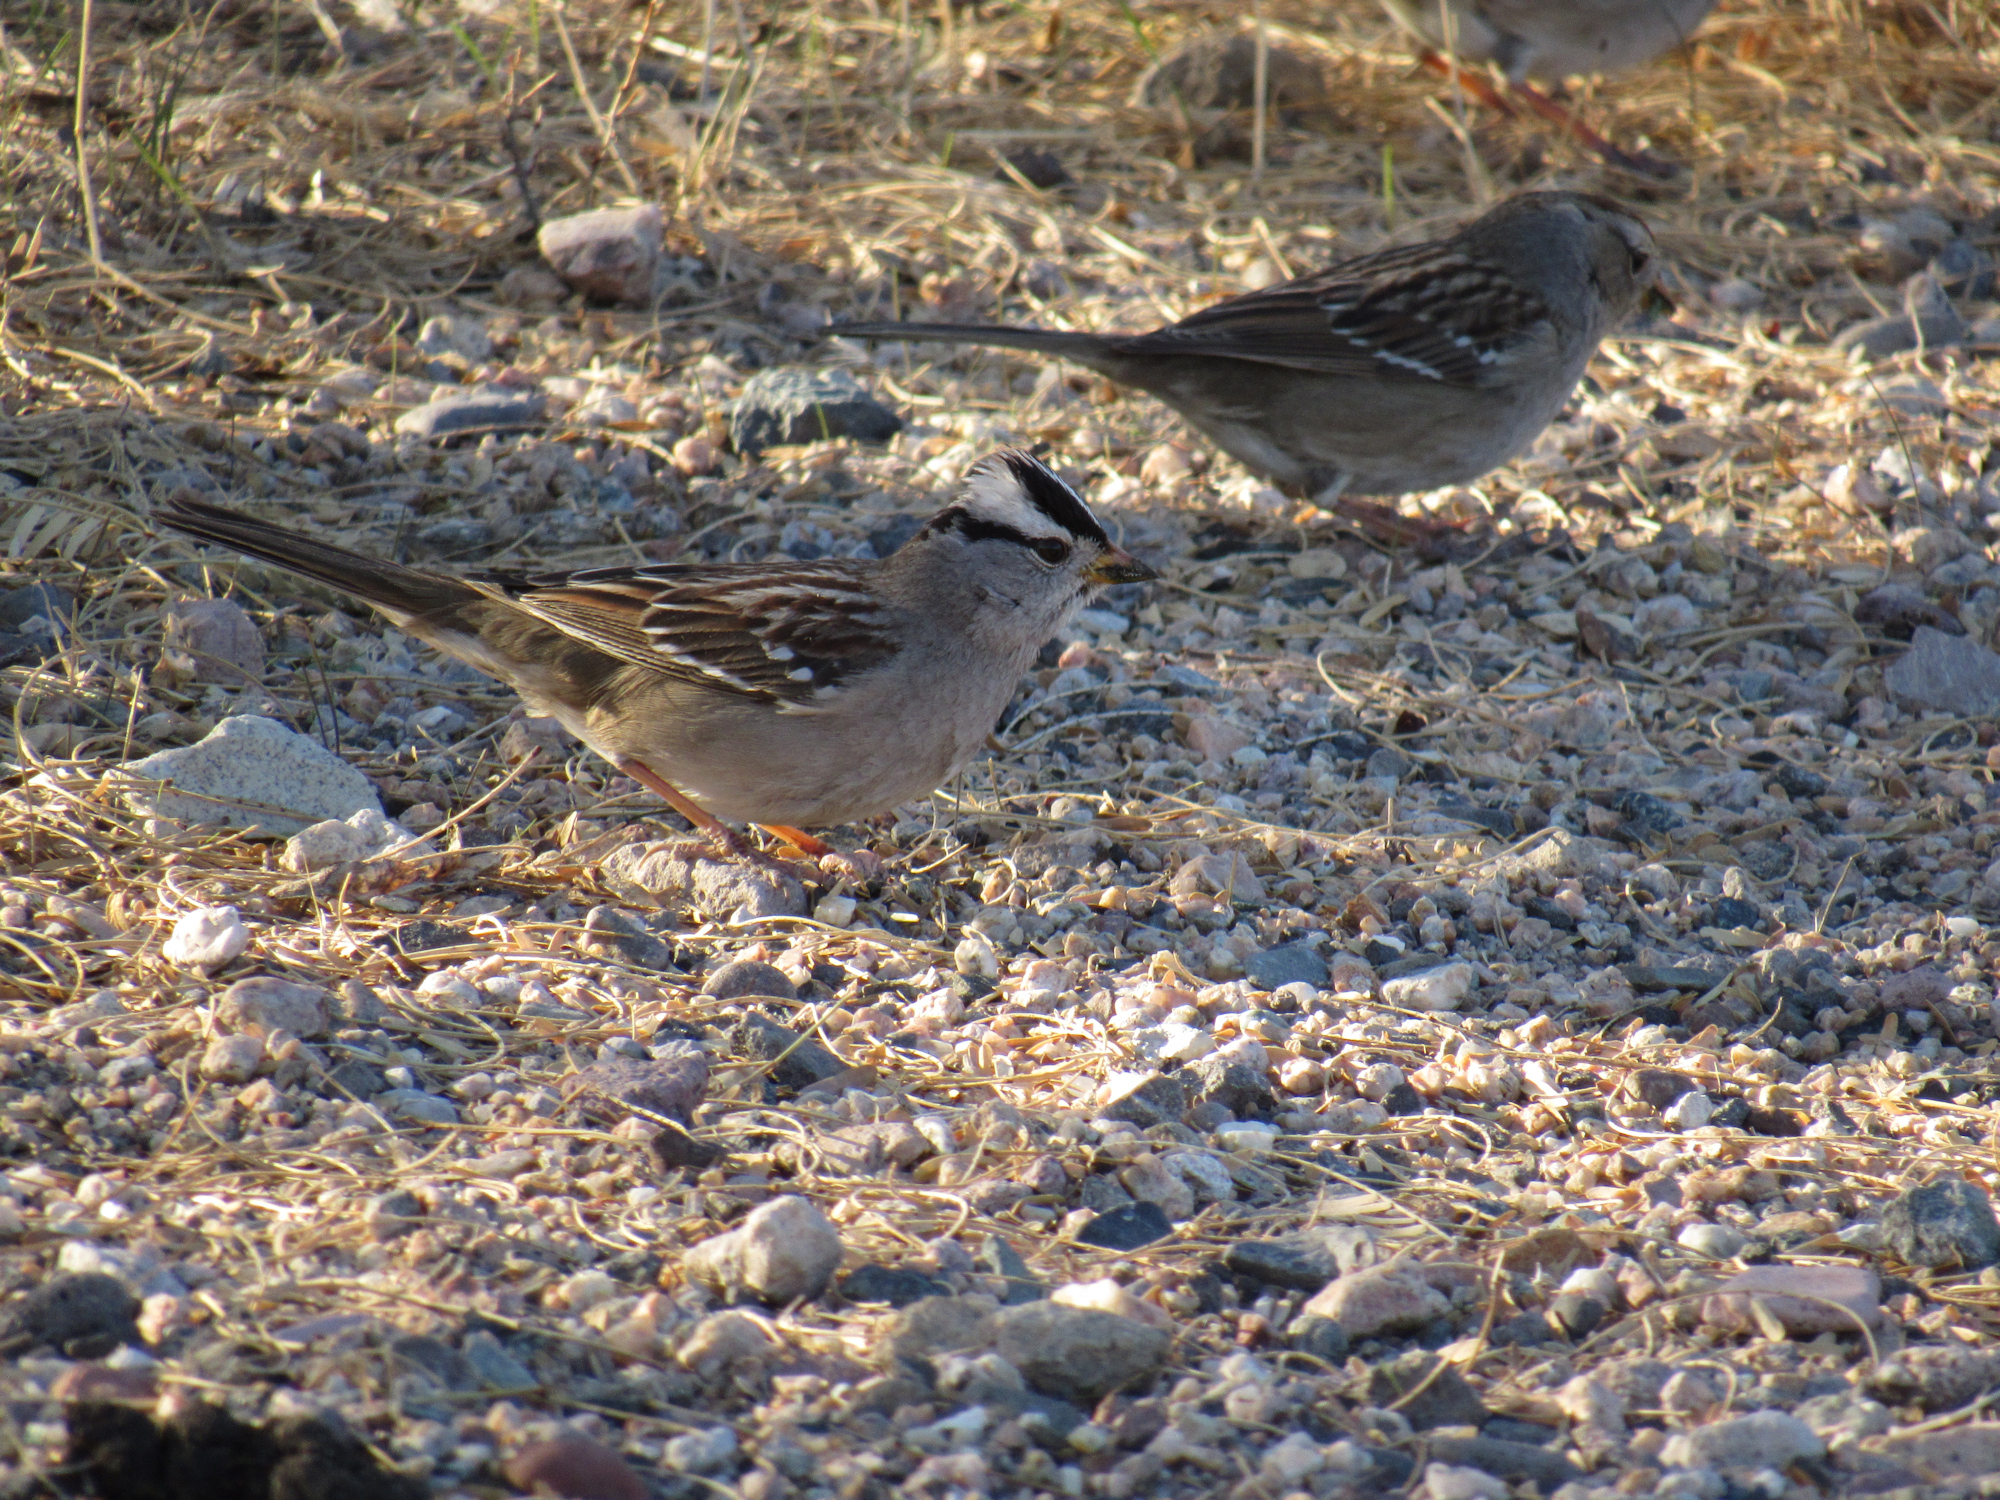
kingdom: Animalia
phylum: Chordata
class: Aves
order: Passeriformes
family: Passerellidae
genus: Zonotrichia
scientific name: Zonotrichia leucophrys
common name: White-crowned sparrow
